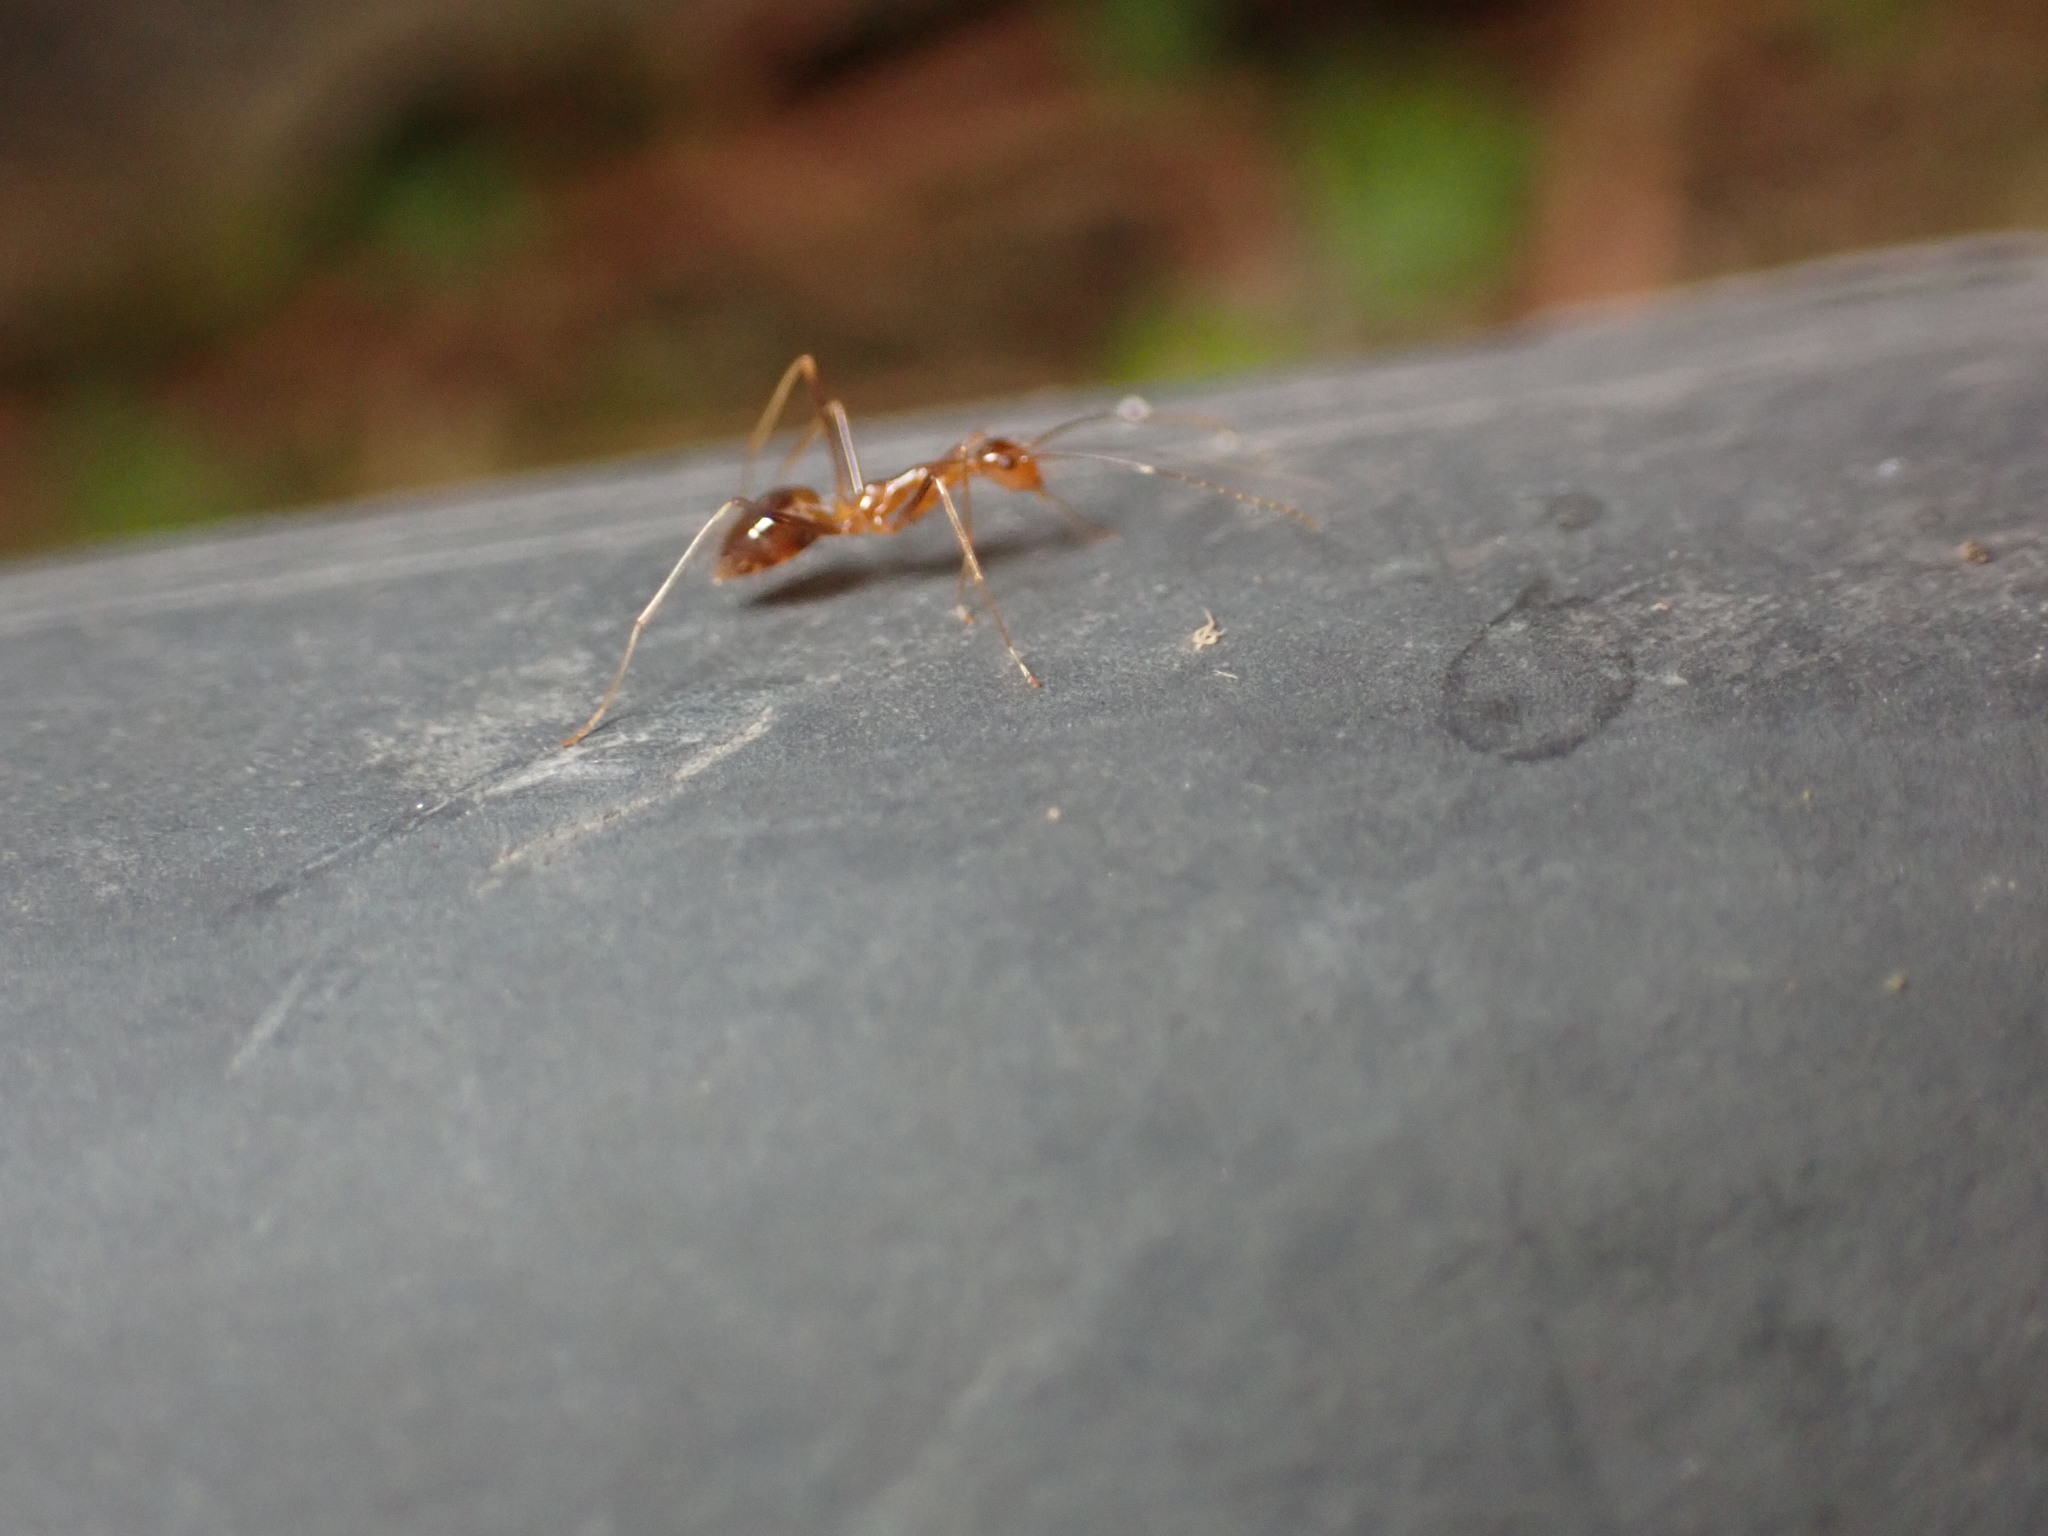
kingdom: Animalia
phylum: Arthropoda
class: Insecta
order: Hymenoptera
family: Formicidae
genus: Anoplolepis
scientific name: Anoplolepis gracilipes
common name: Ant
